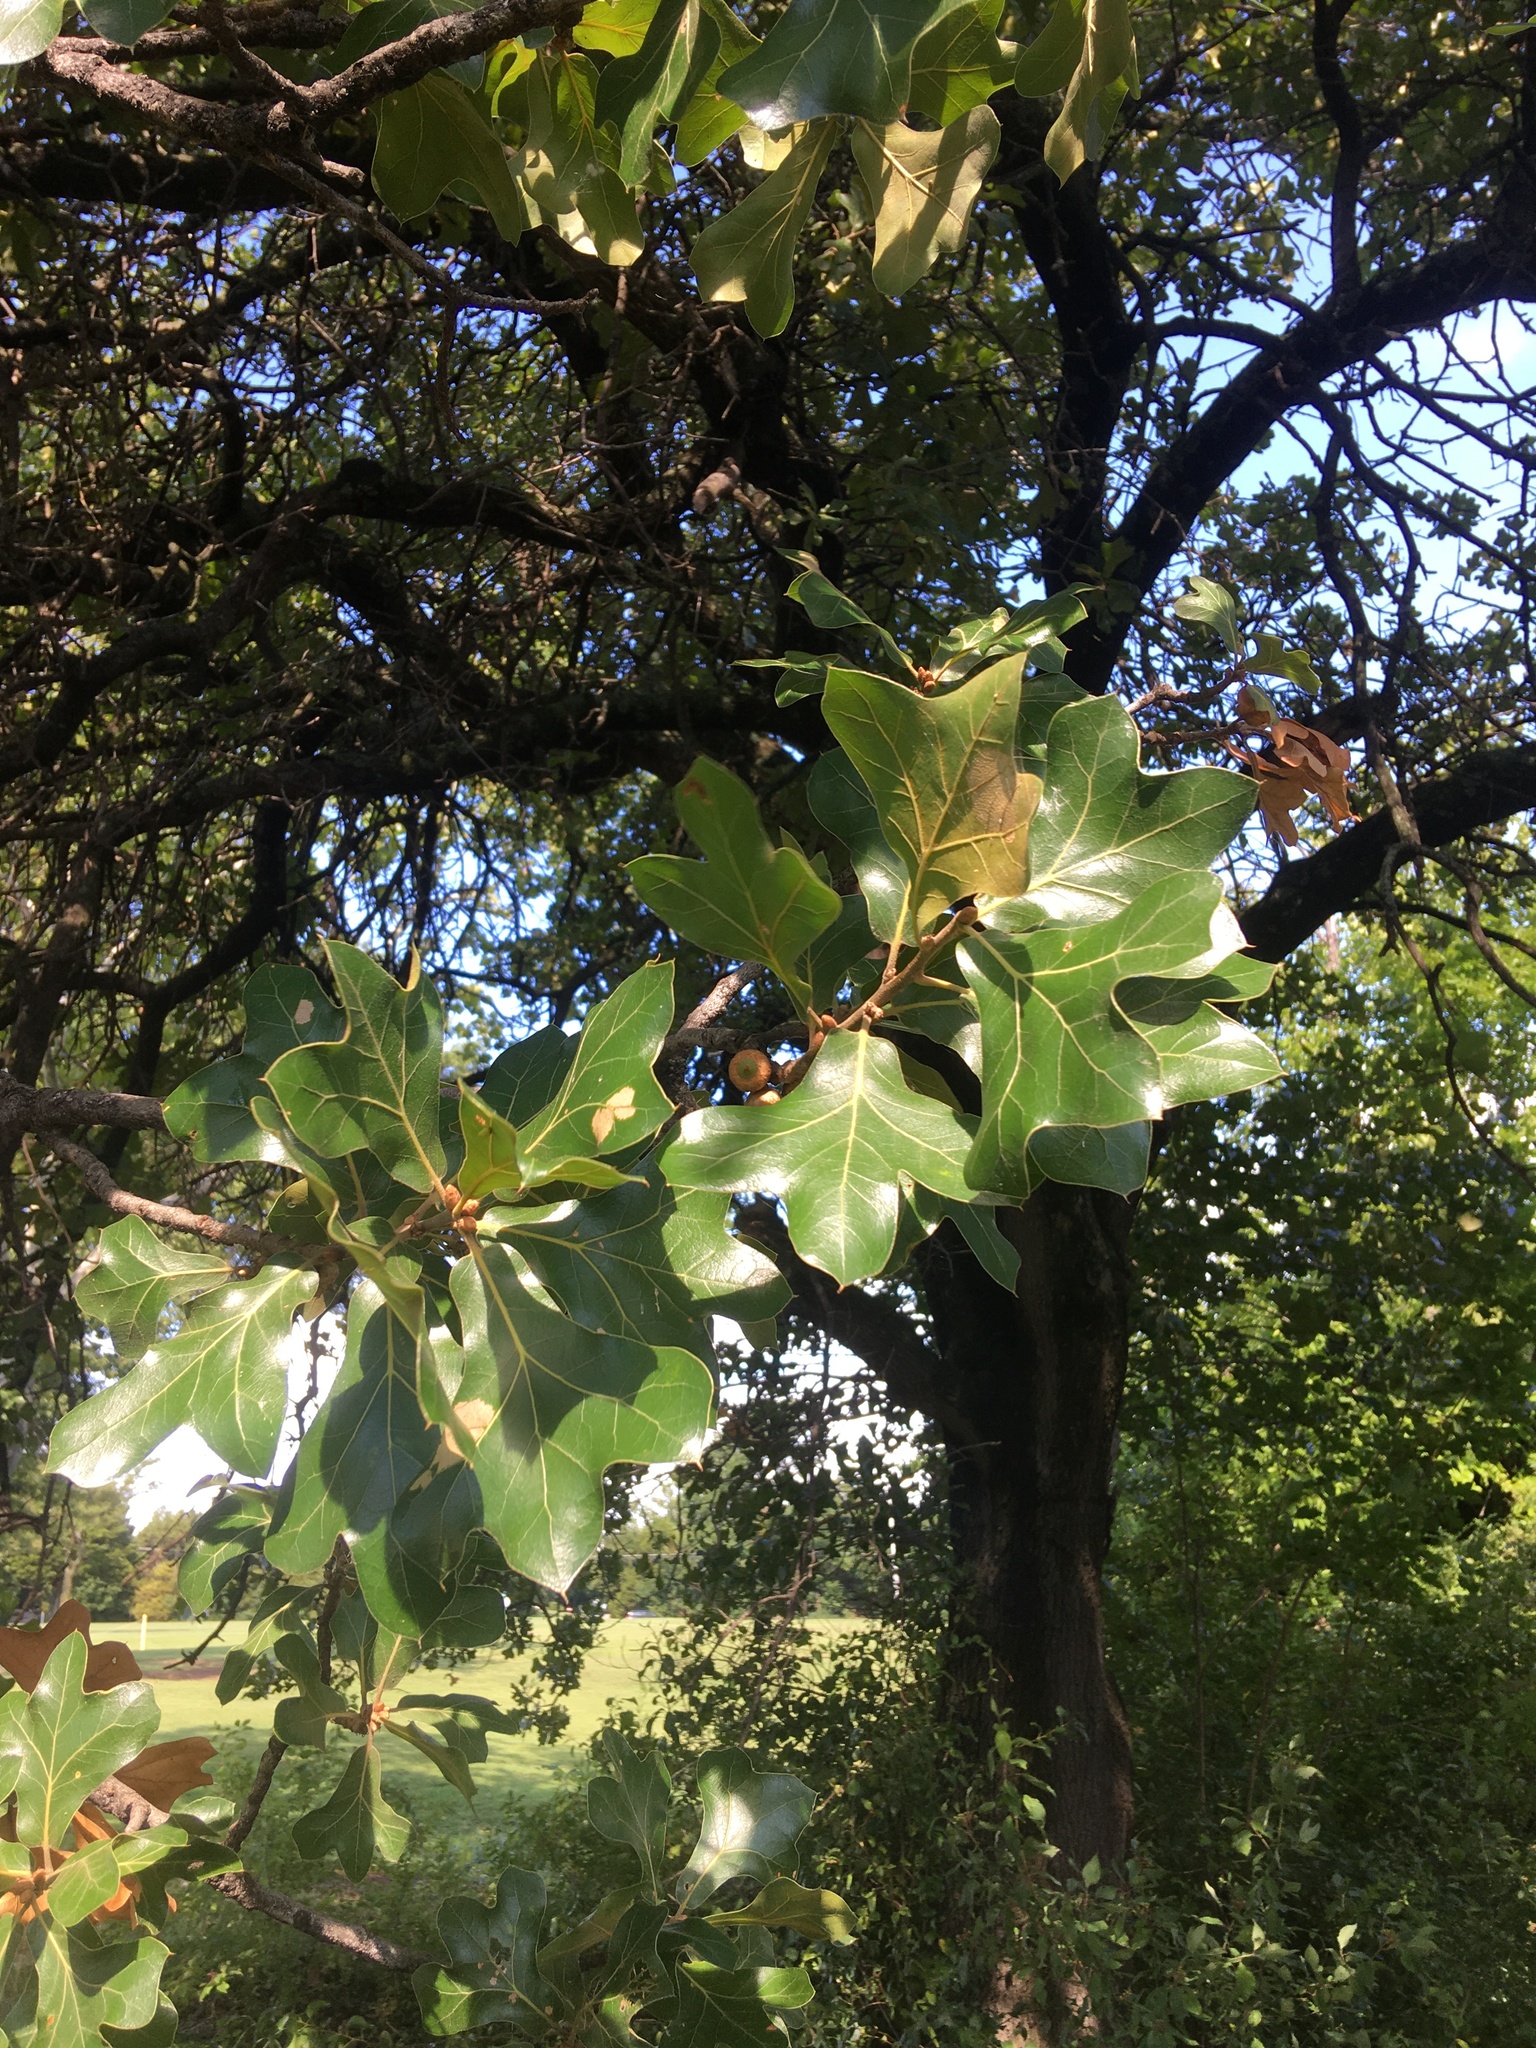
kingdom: Plantae
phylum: Tracheophyta
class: Magnoliopsida
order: Fagales
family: Fagaceae
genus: Quercus
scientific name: Quercus marilandica
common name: Blackjack oak
